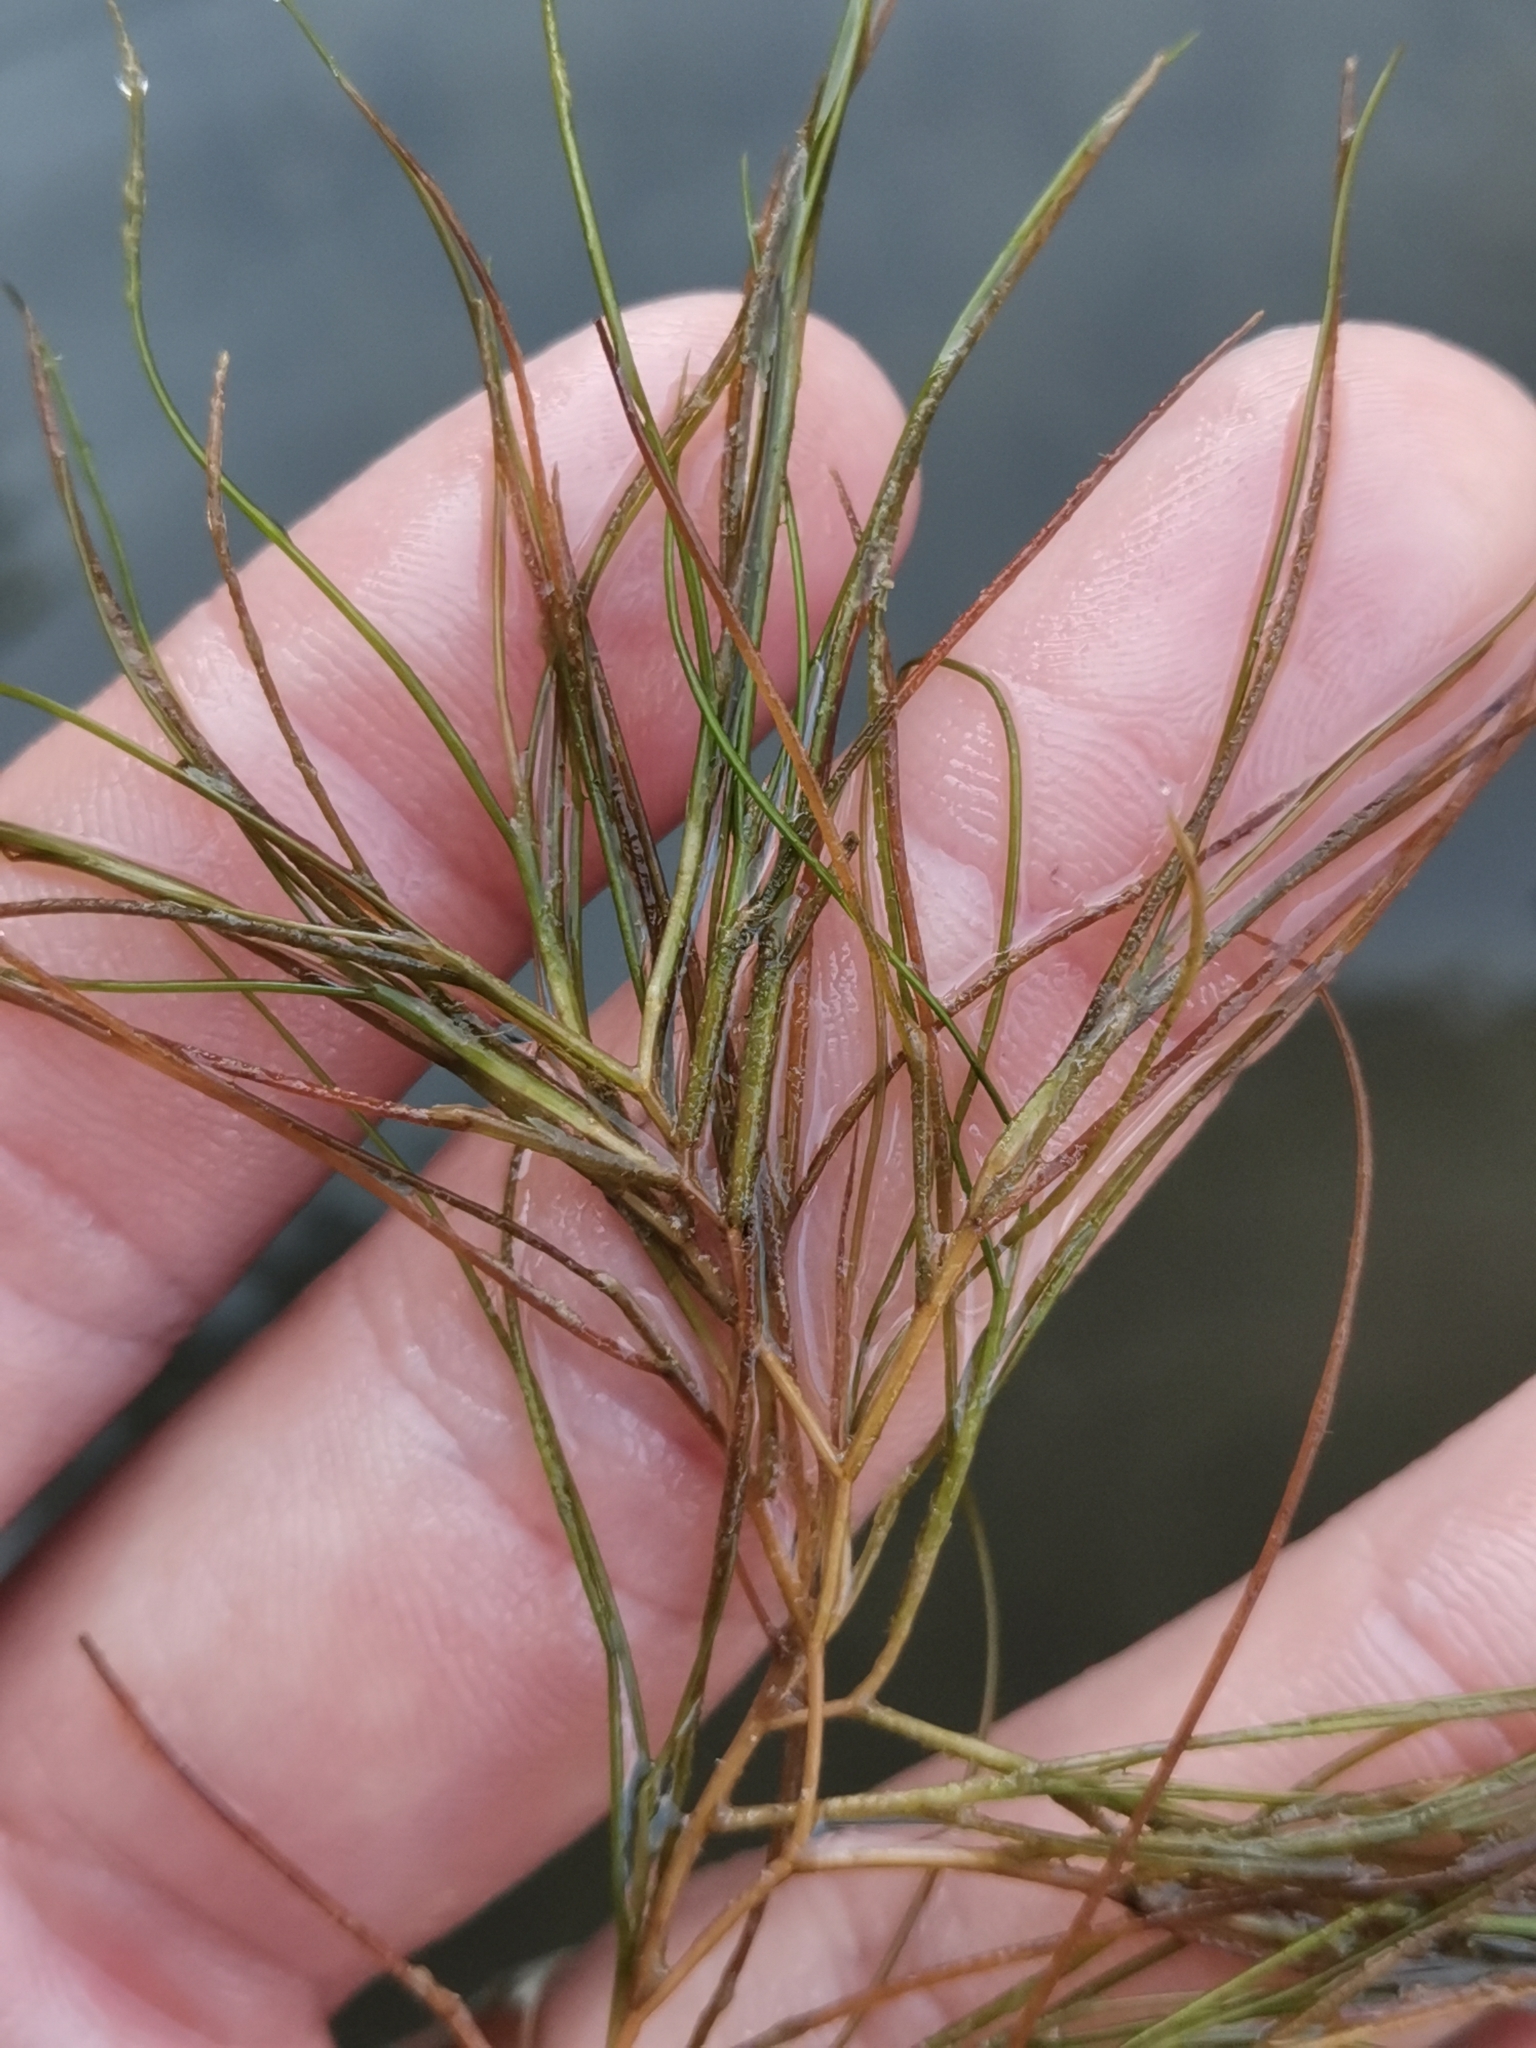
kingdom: Plantae
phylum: Tracheophyta
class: Liliopsida
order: Alismatales
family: Potamogetonaceae
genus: Stuckenia
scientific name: Stuckenia pectinata
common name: Sago pondweed
